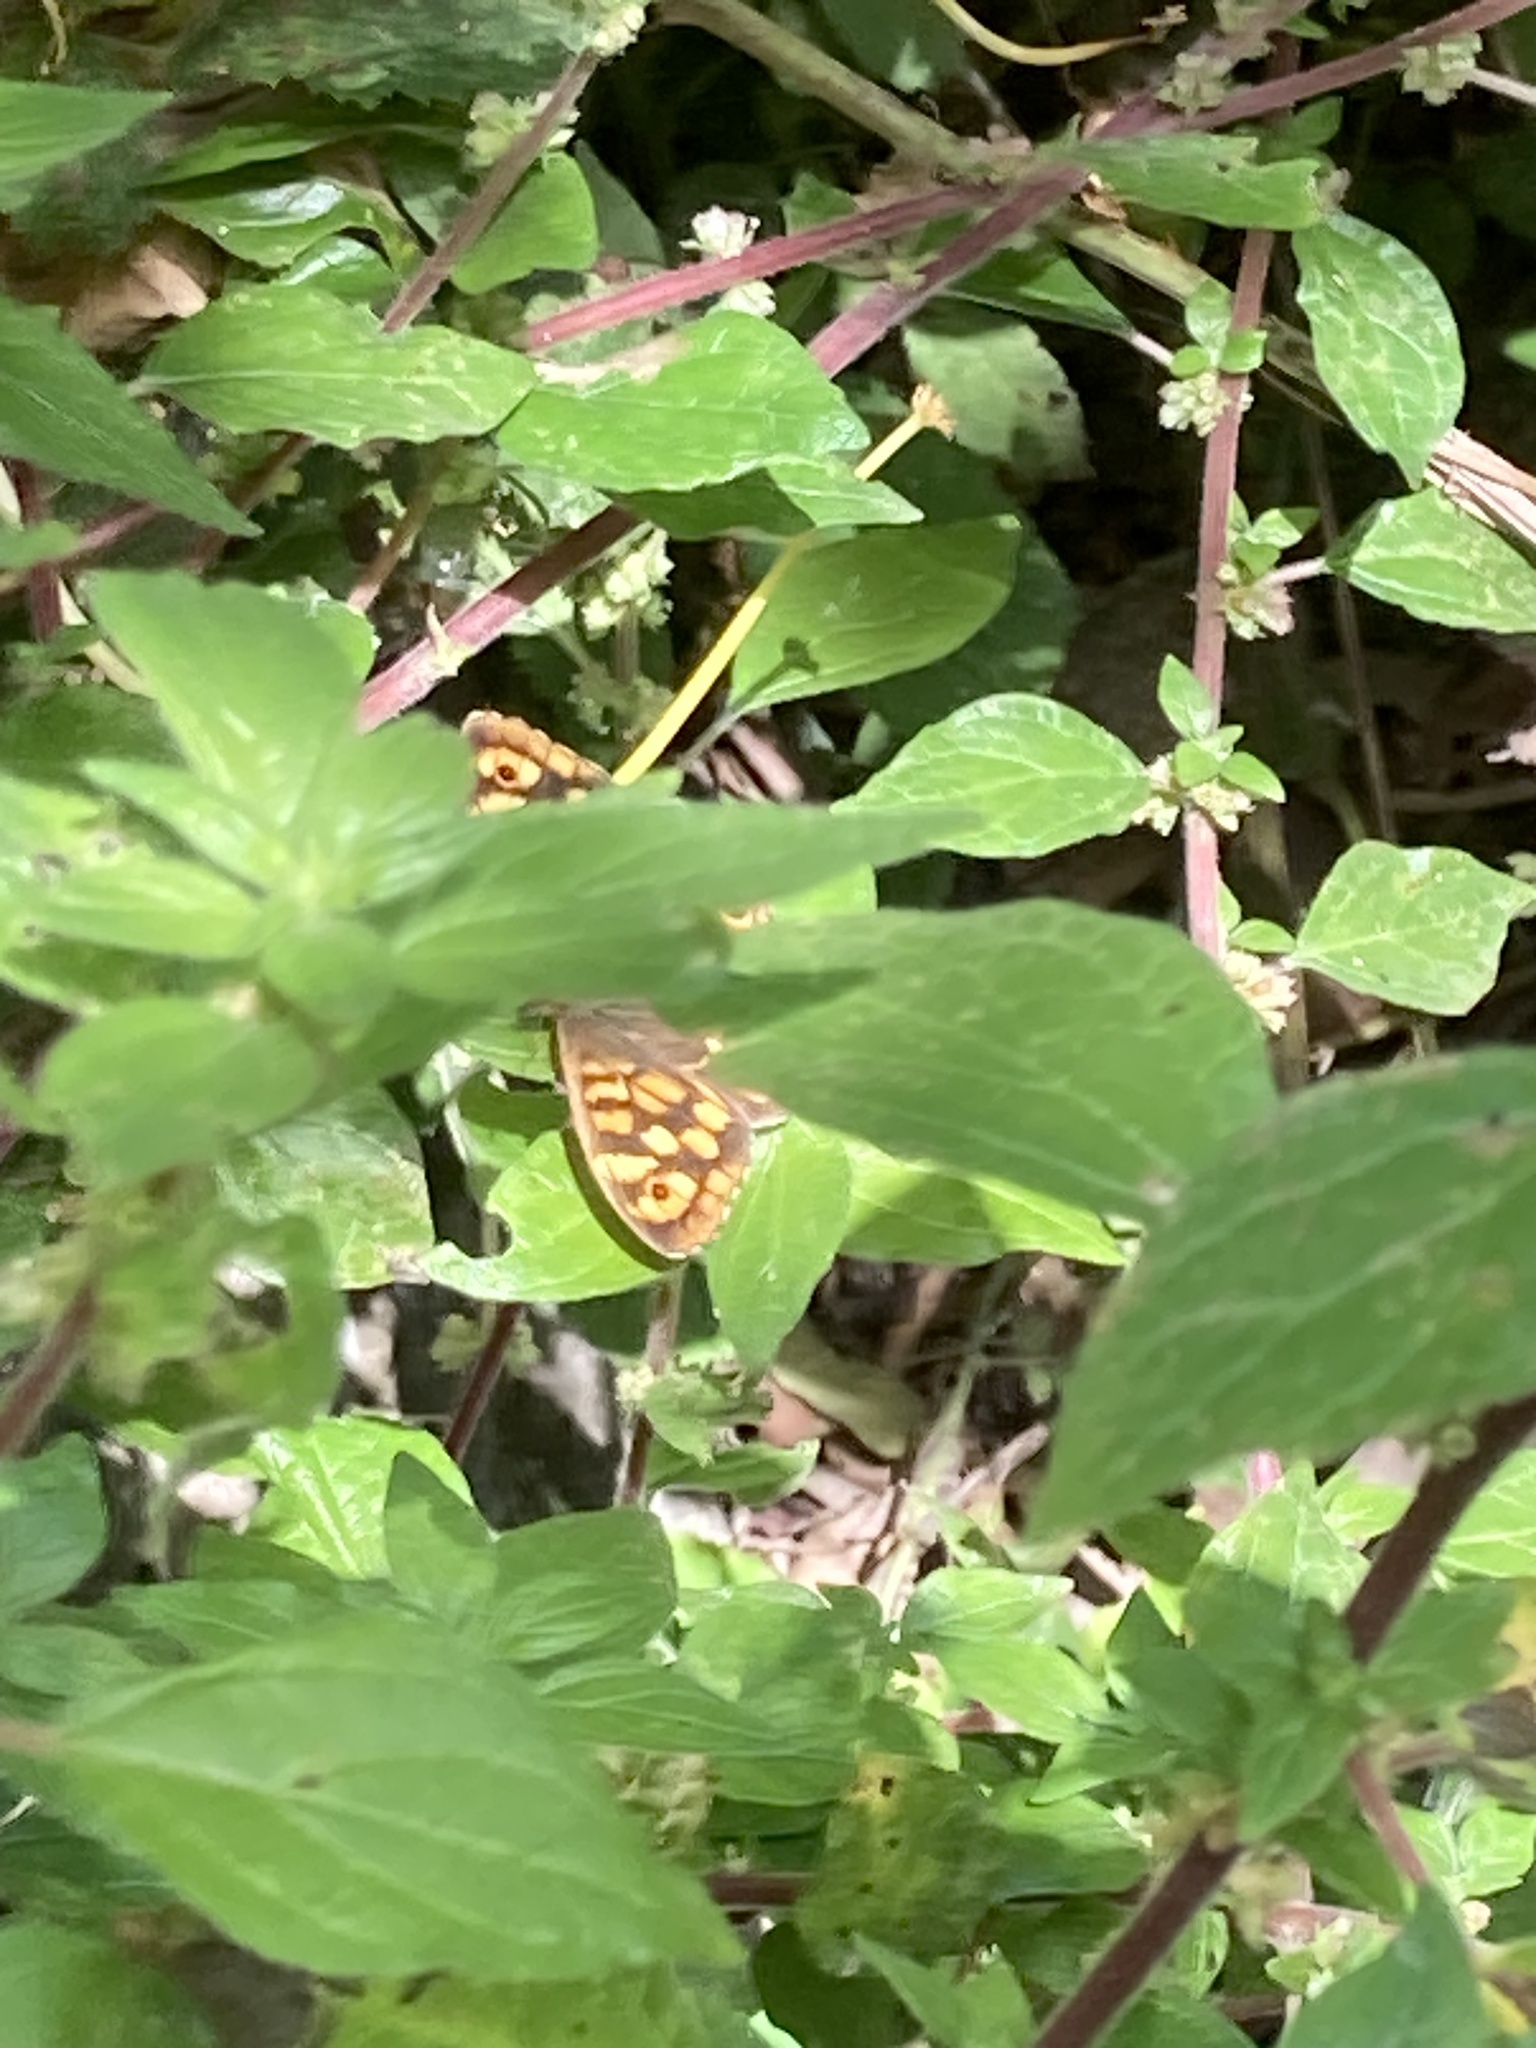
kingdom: Animalia
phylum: Arthropoda
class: Insecta
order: Lepidoptera
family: Nymphalidae
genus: Pararge
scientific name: Pararge aegeria
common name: Speckled wood
